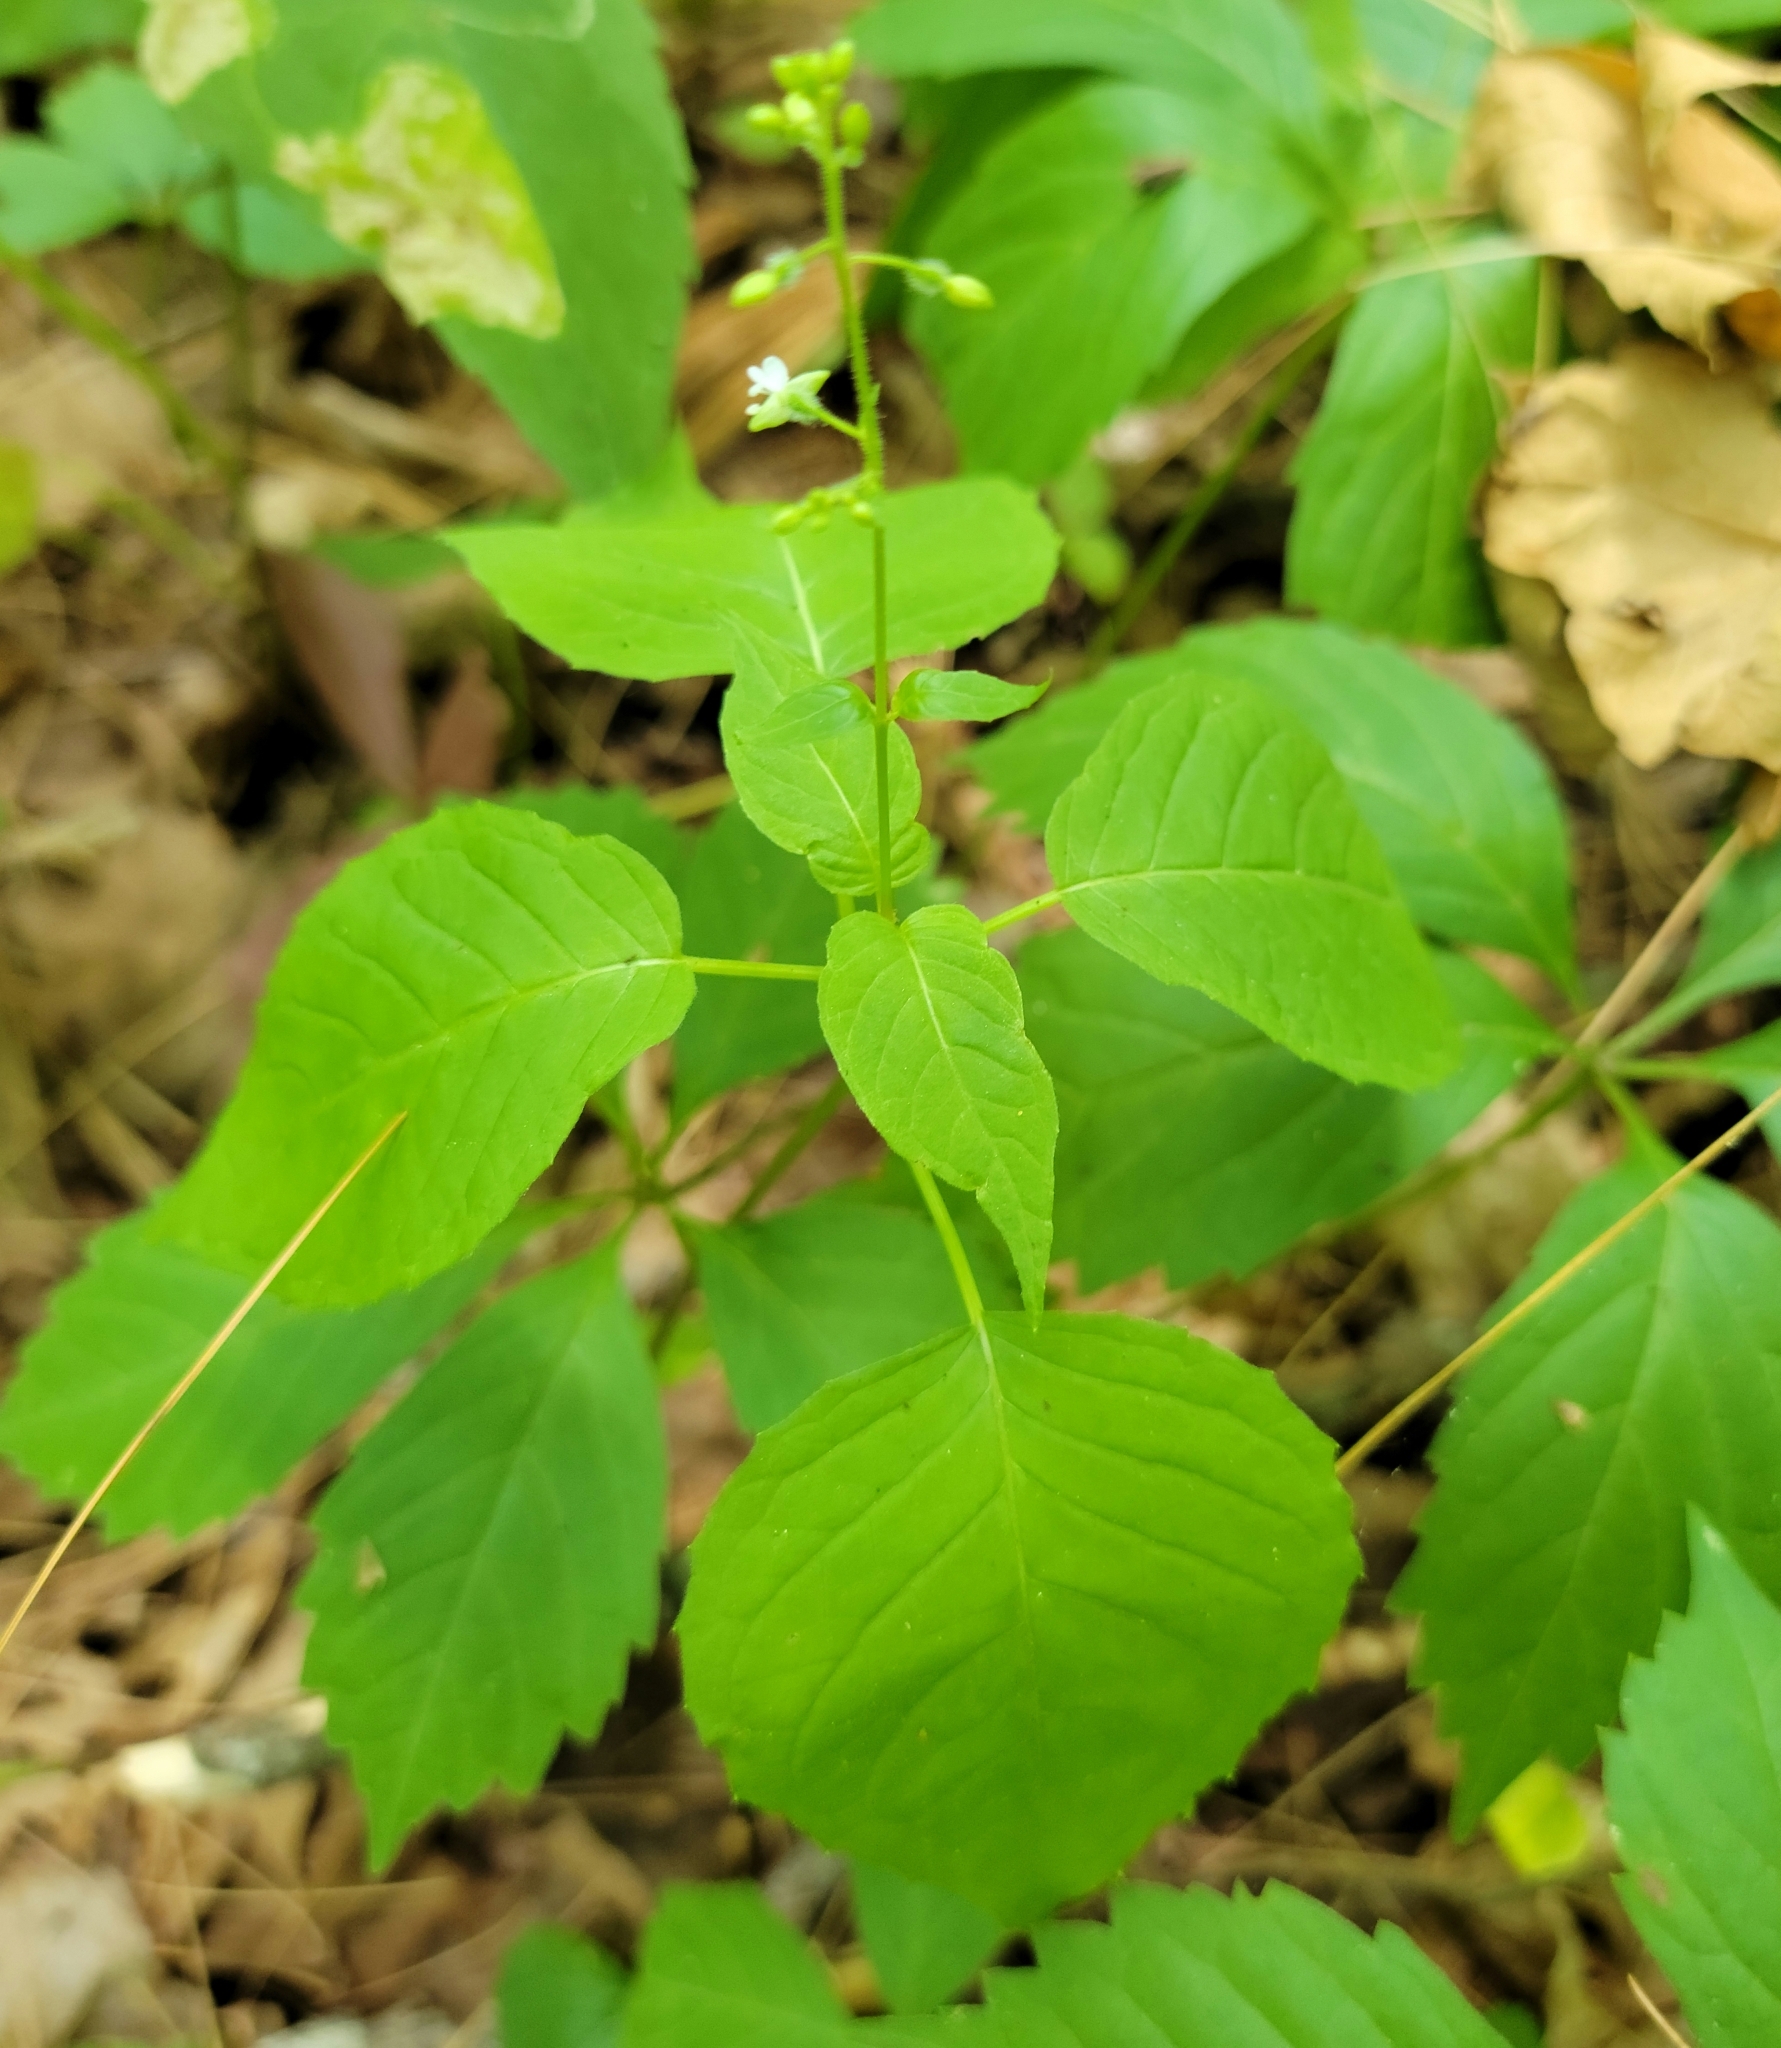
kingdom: Plantae
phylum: Tracheophyta
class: Magnoliopsida
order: Myrtales
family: Onagraceae
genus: Circaea
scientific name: Circaea canadensis
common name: Broad-leaved enchanter's nightshade
